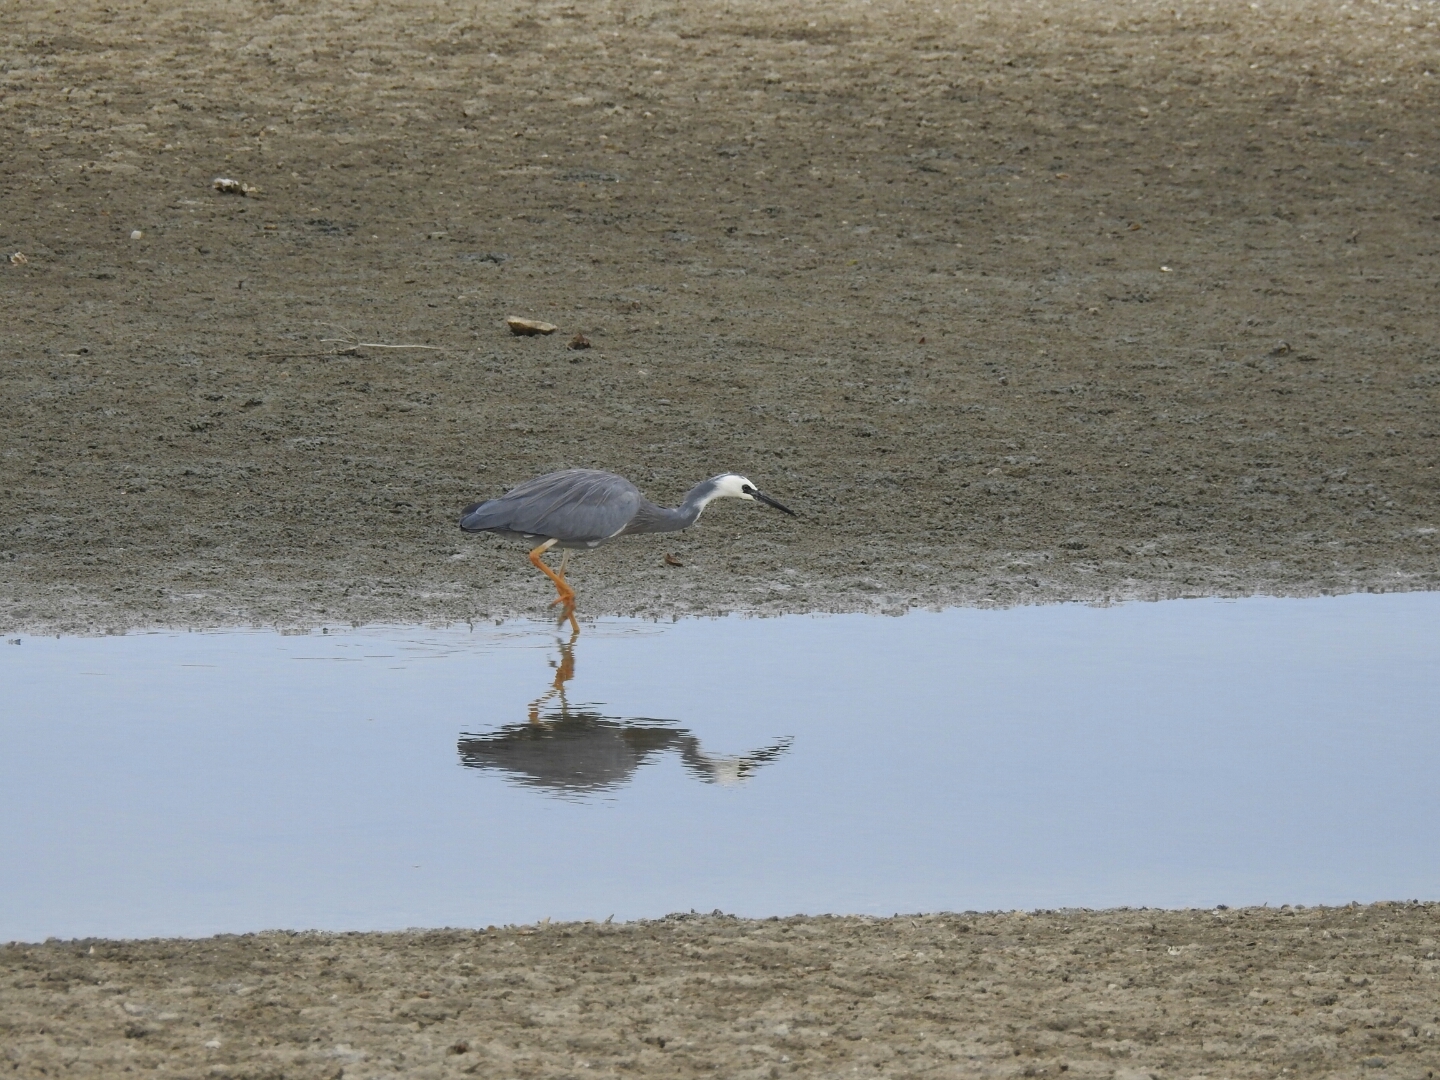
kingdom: Animalia
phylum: Chordata
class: Aves
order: Pelecaniformes
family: Ardeidae
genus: Egretta
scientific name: Egretta novaehollandiae
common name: White-faced heron
